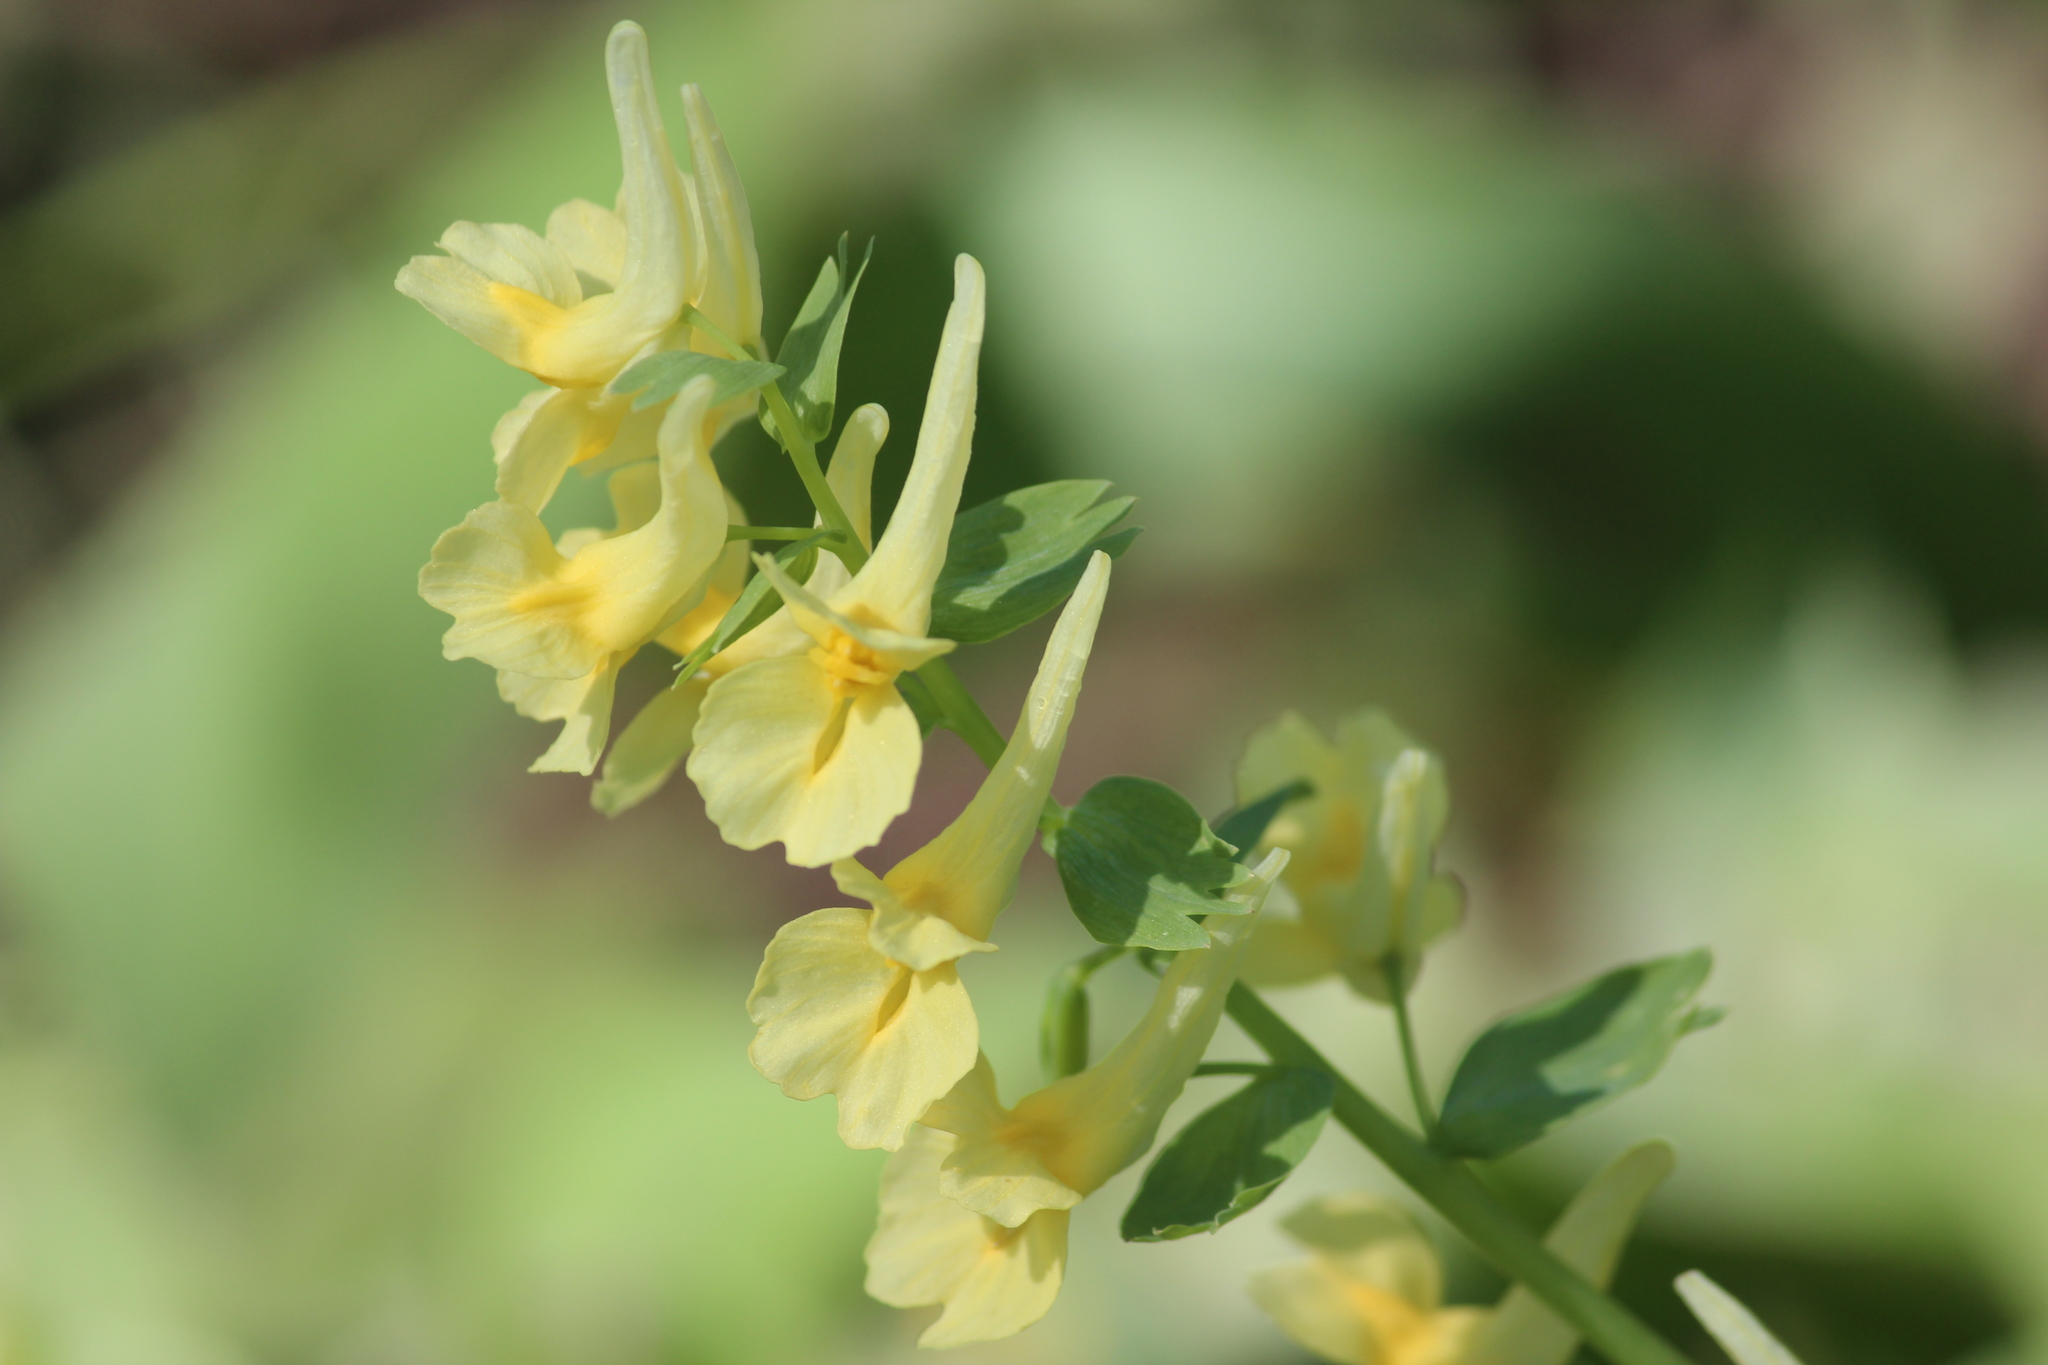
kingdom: Plantae
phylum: Tracheophyta
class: Magnoliopsida
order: Ranunculales
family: Papaveraceae
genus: Corydalis
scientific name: Corydalis bracteata
